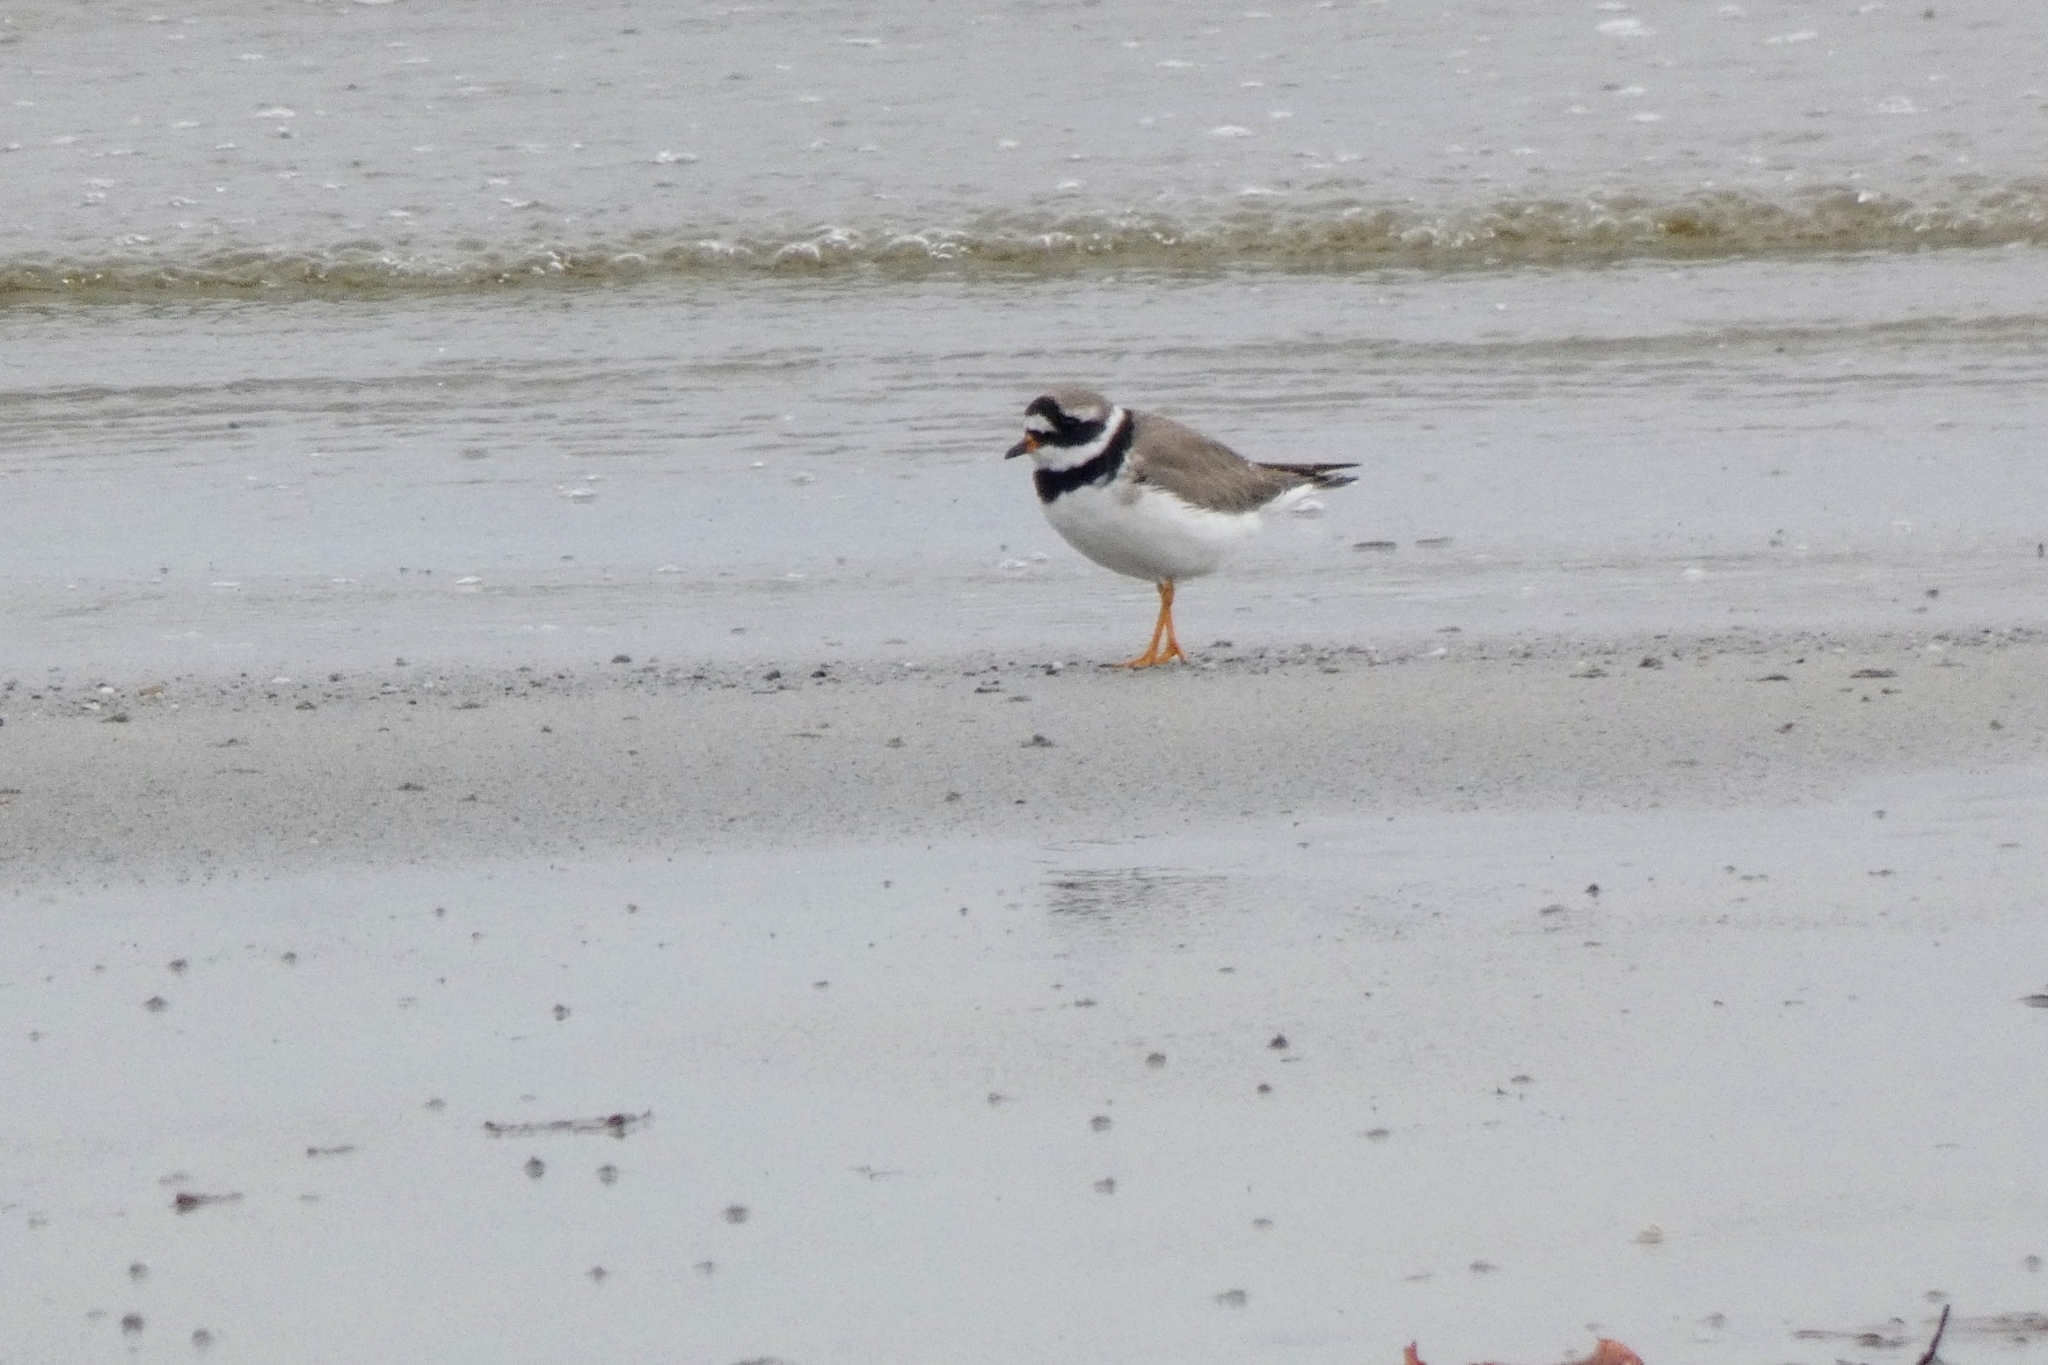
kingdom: Animalia
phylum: Chordata
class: Aves
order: Charadriiformes
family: Charadriidae
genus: Charadrius
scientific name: Charadrius hiaticula
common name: Common ringed plover
